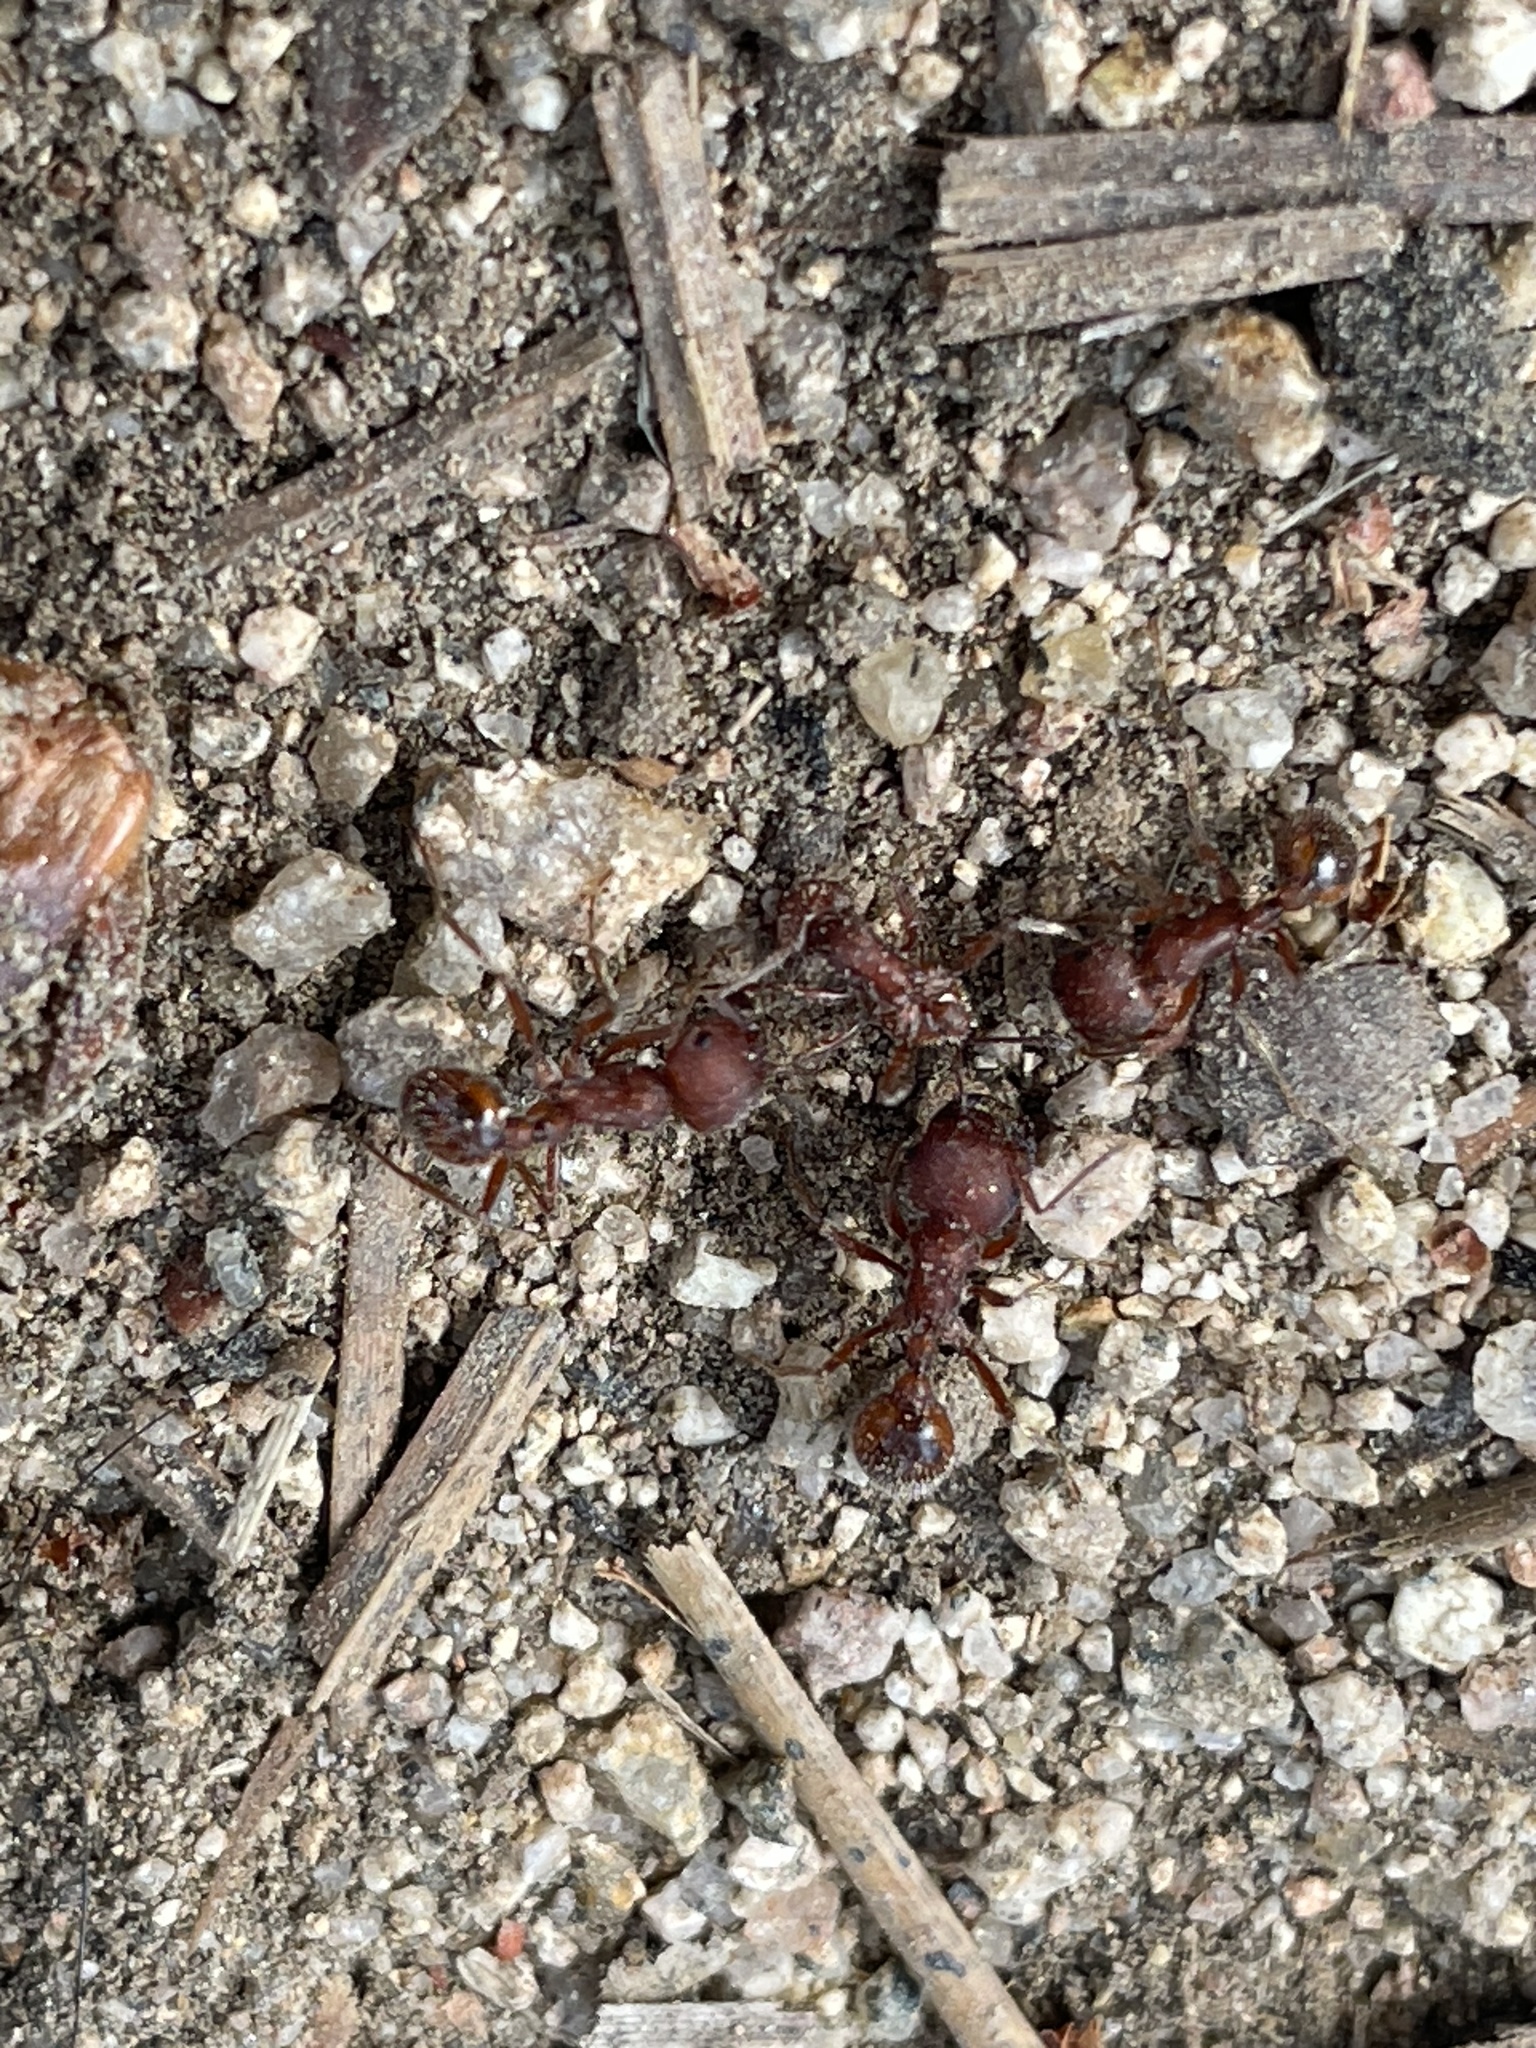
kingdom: Animalia
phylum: Arthropoda
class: Insecta
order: Hymenoptera
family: Formicidae
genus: Pogonomyrmex
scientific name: Pogonomyrmex occidentalis
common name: Western harvester ant
